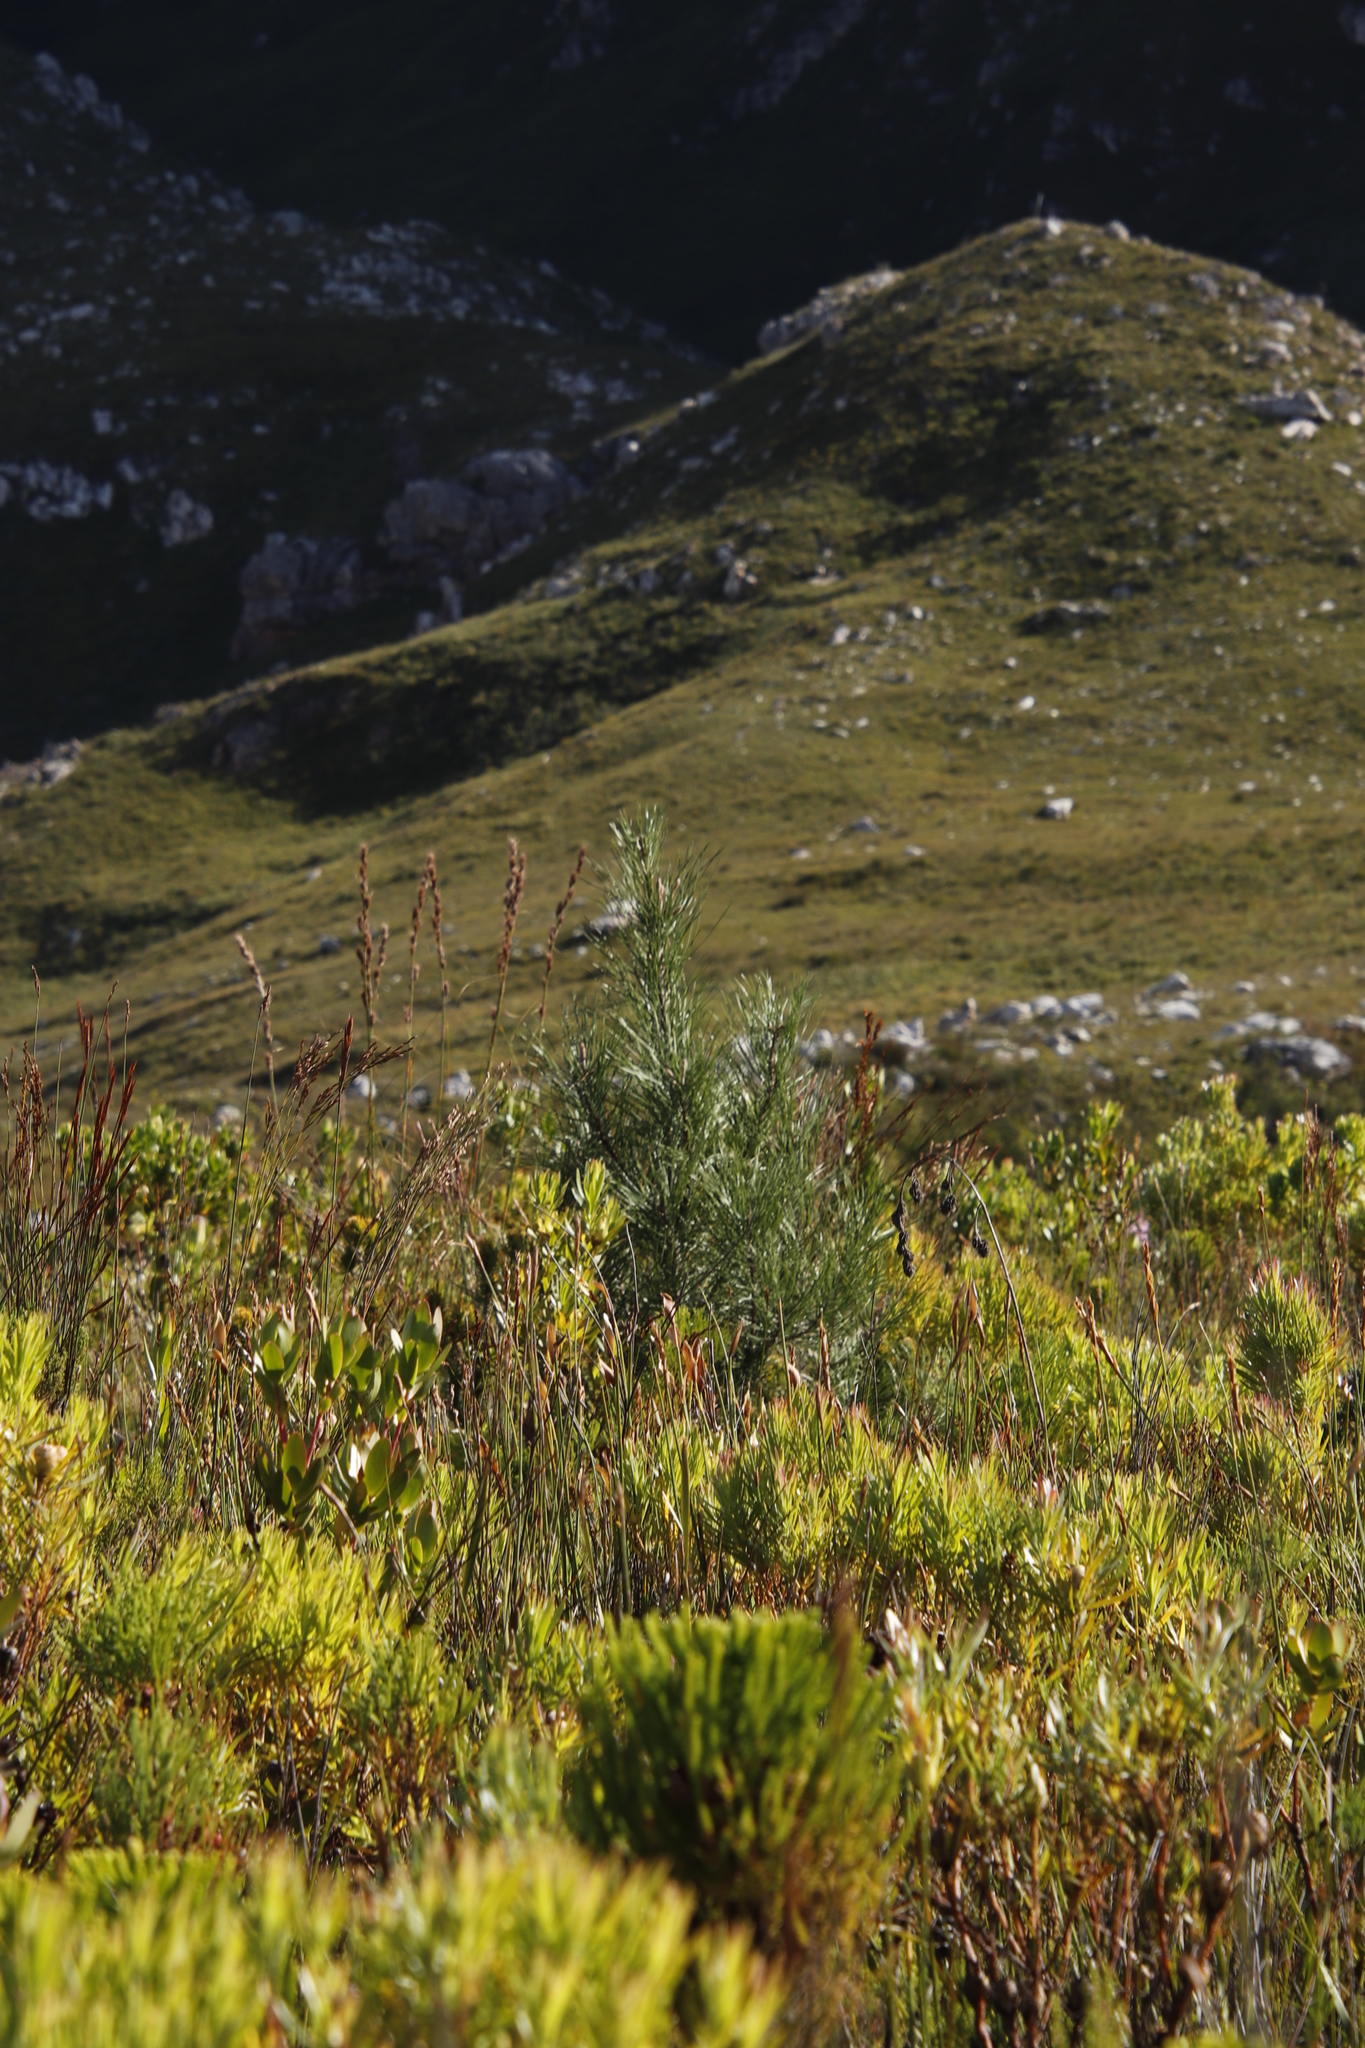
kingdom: Plantae
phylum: Tracheophyta
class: Pinopsida
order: Pinales
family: Pinaceae
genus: Pinus
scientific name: Pinus pinaster
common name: Maritime pine
